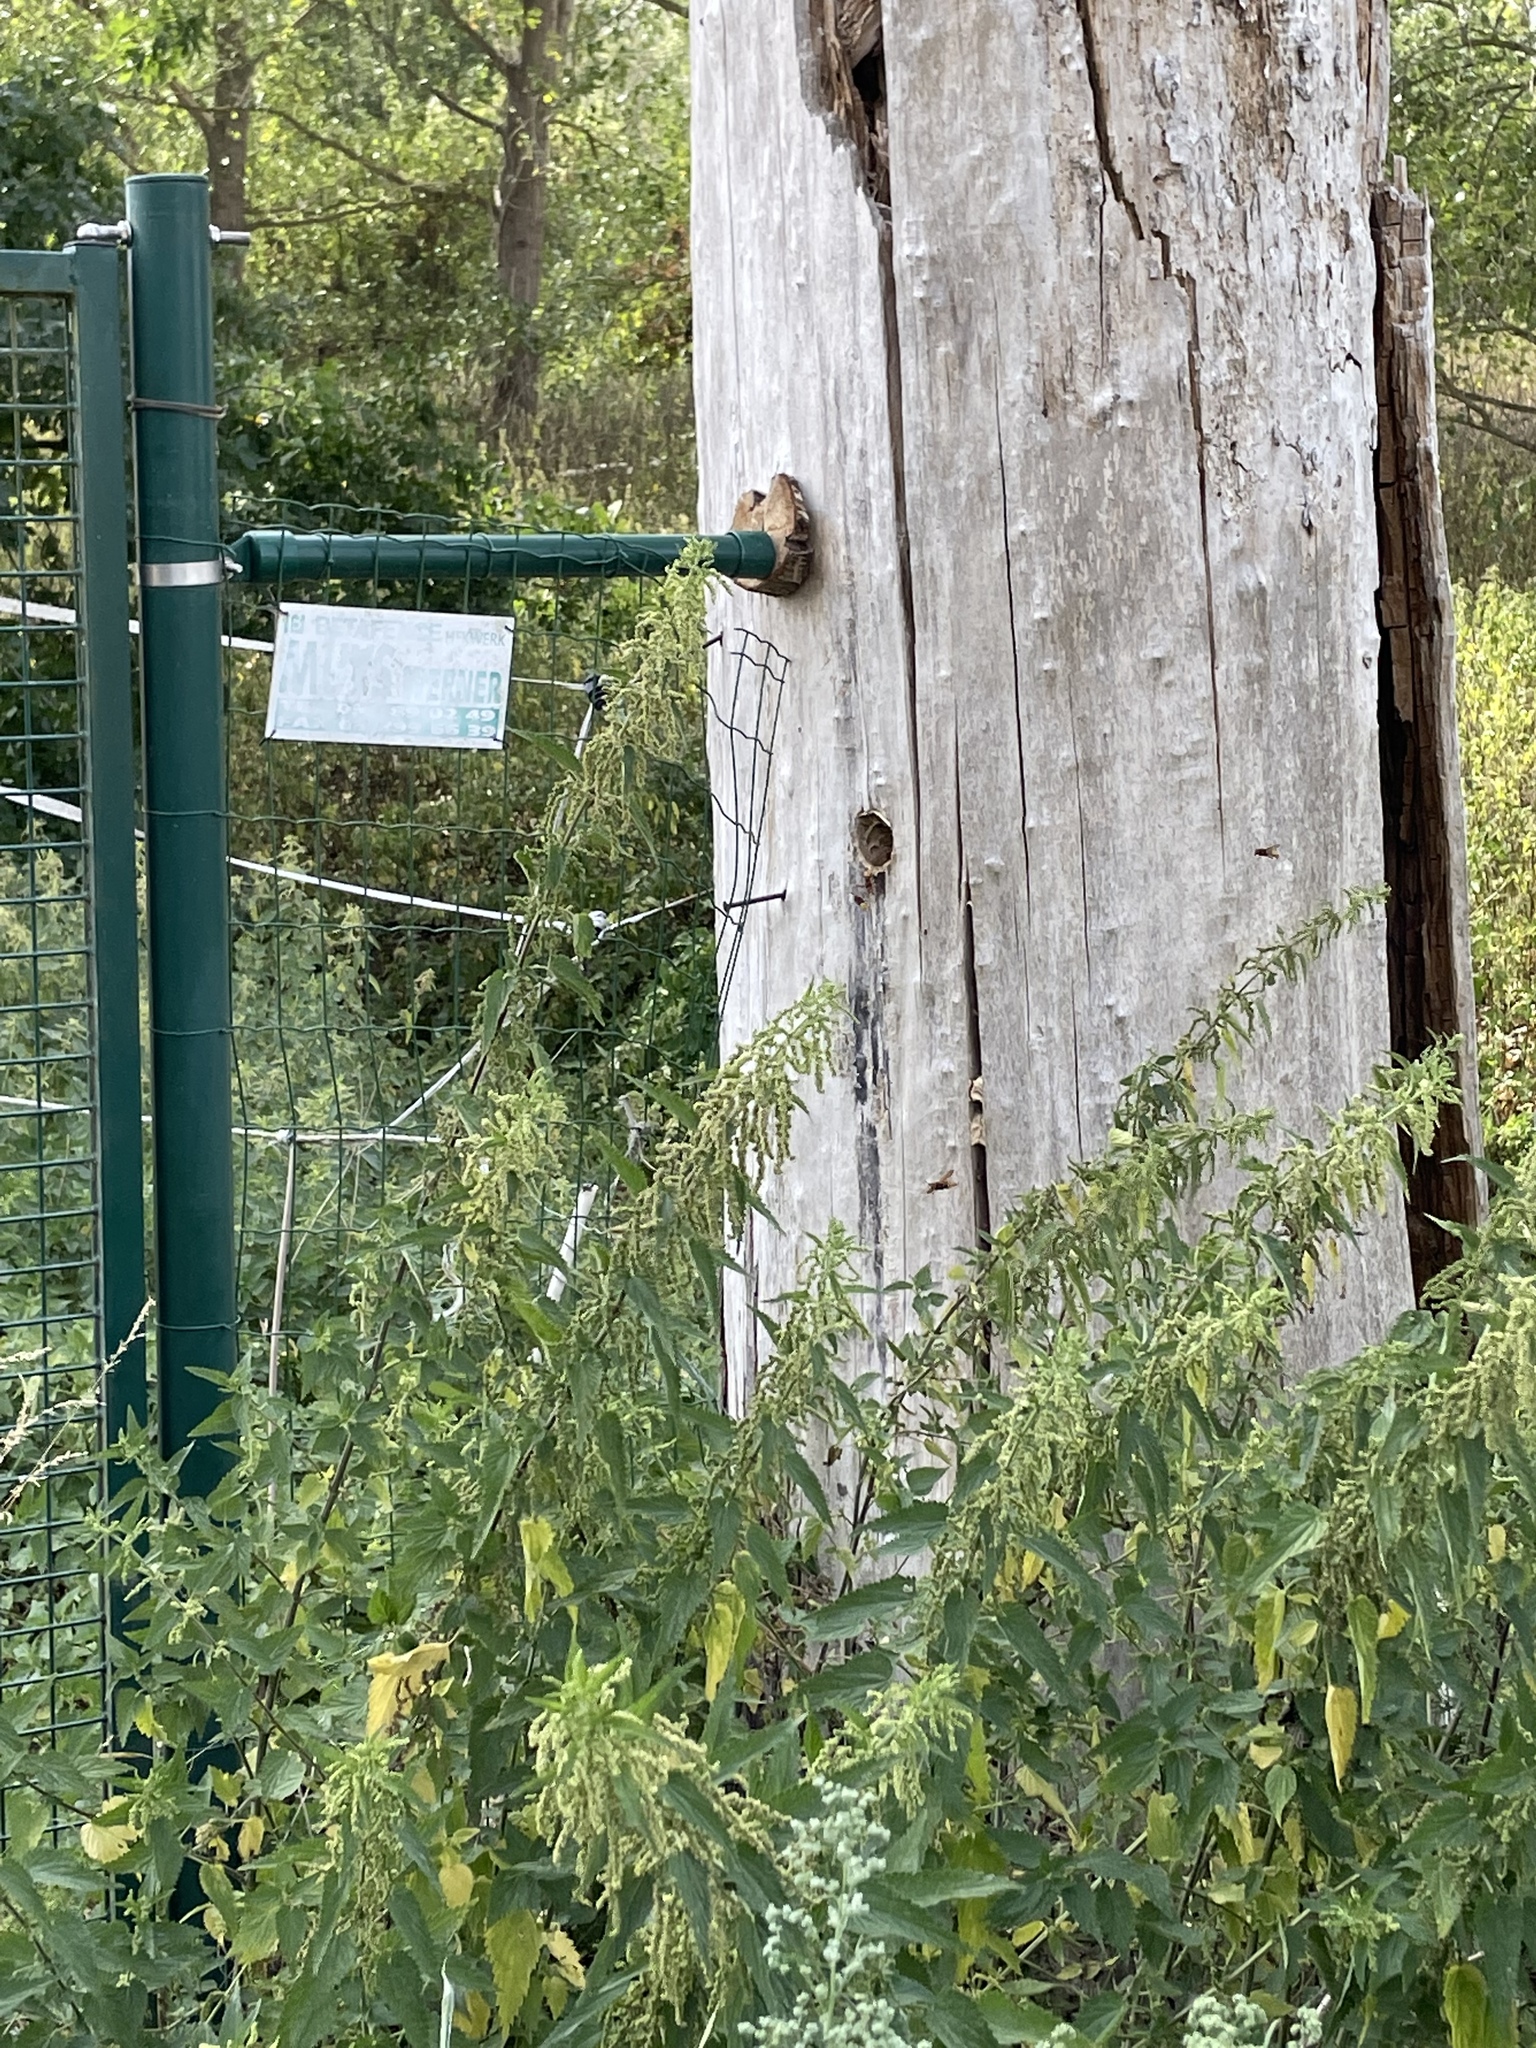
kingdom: Animalia
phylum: Arthropoda
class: Insecta
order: Hymenoptera
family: Vespidae
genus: Vespa
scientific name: Vespa crabro
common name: Hornet
